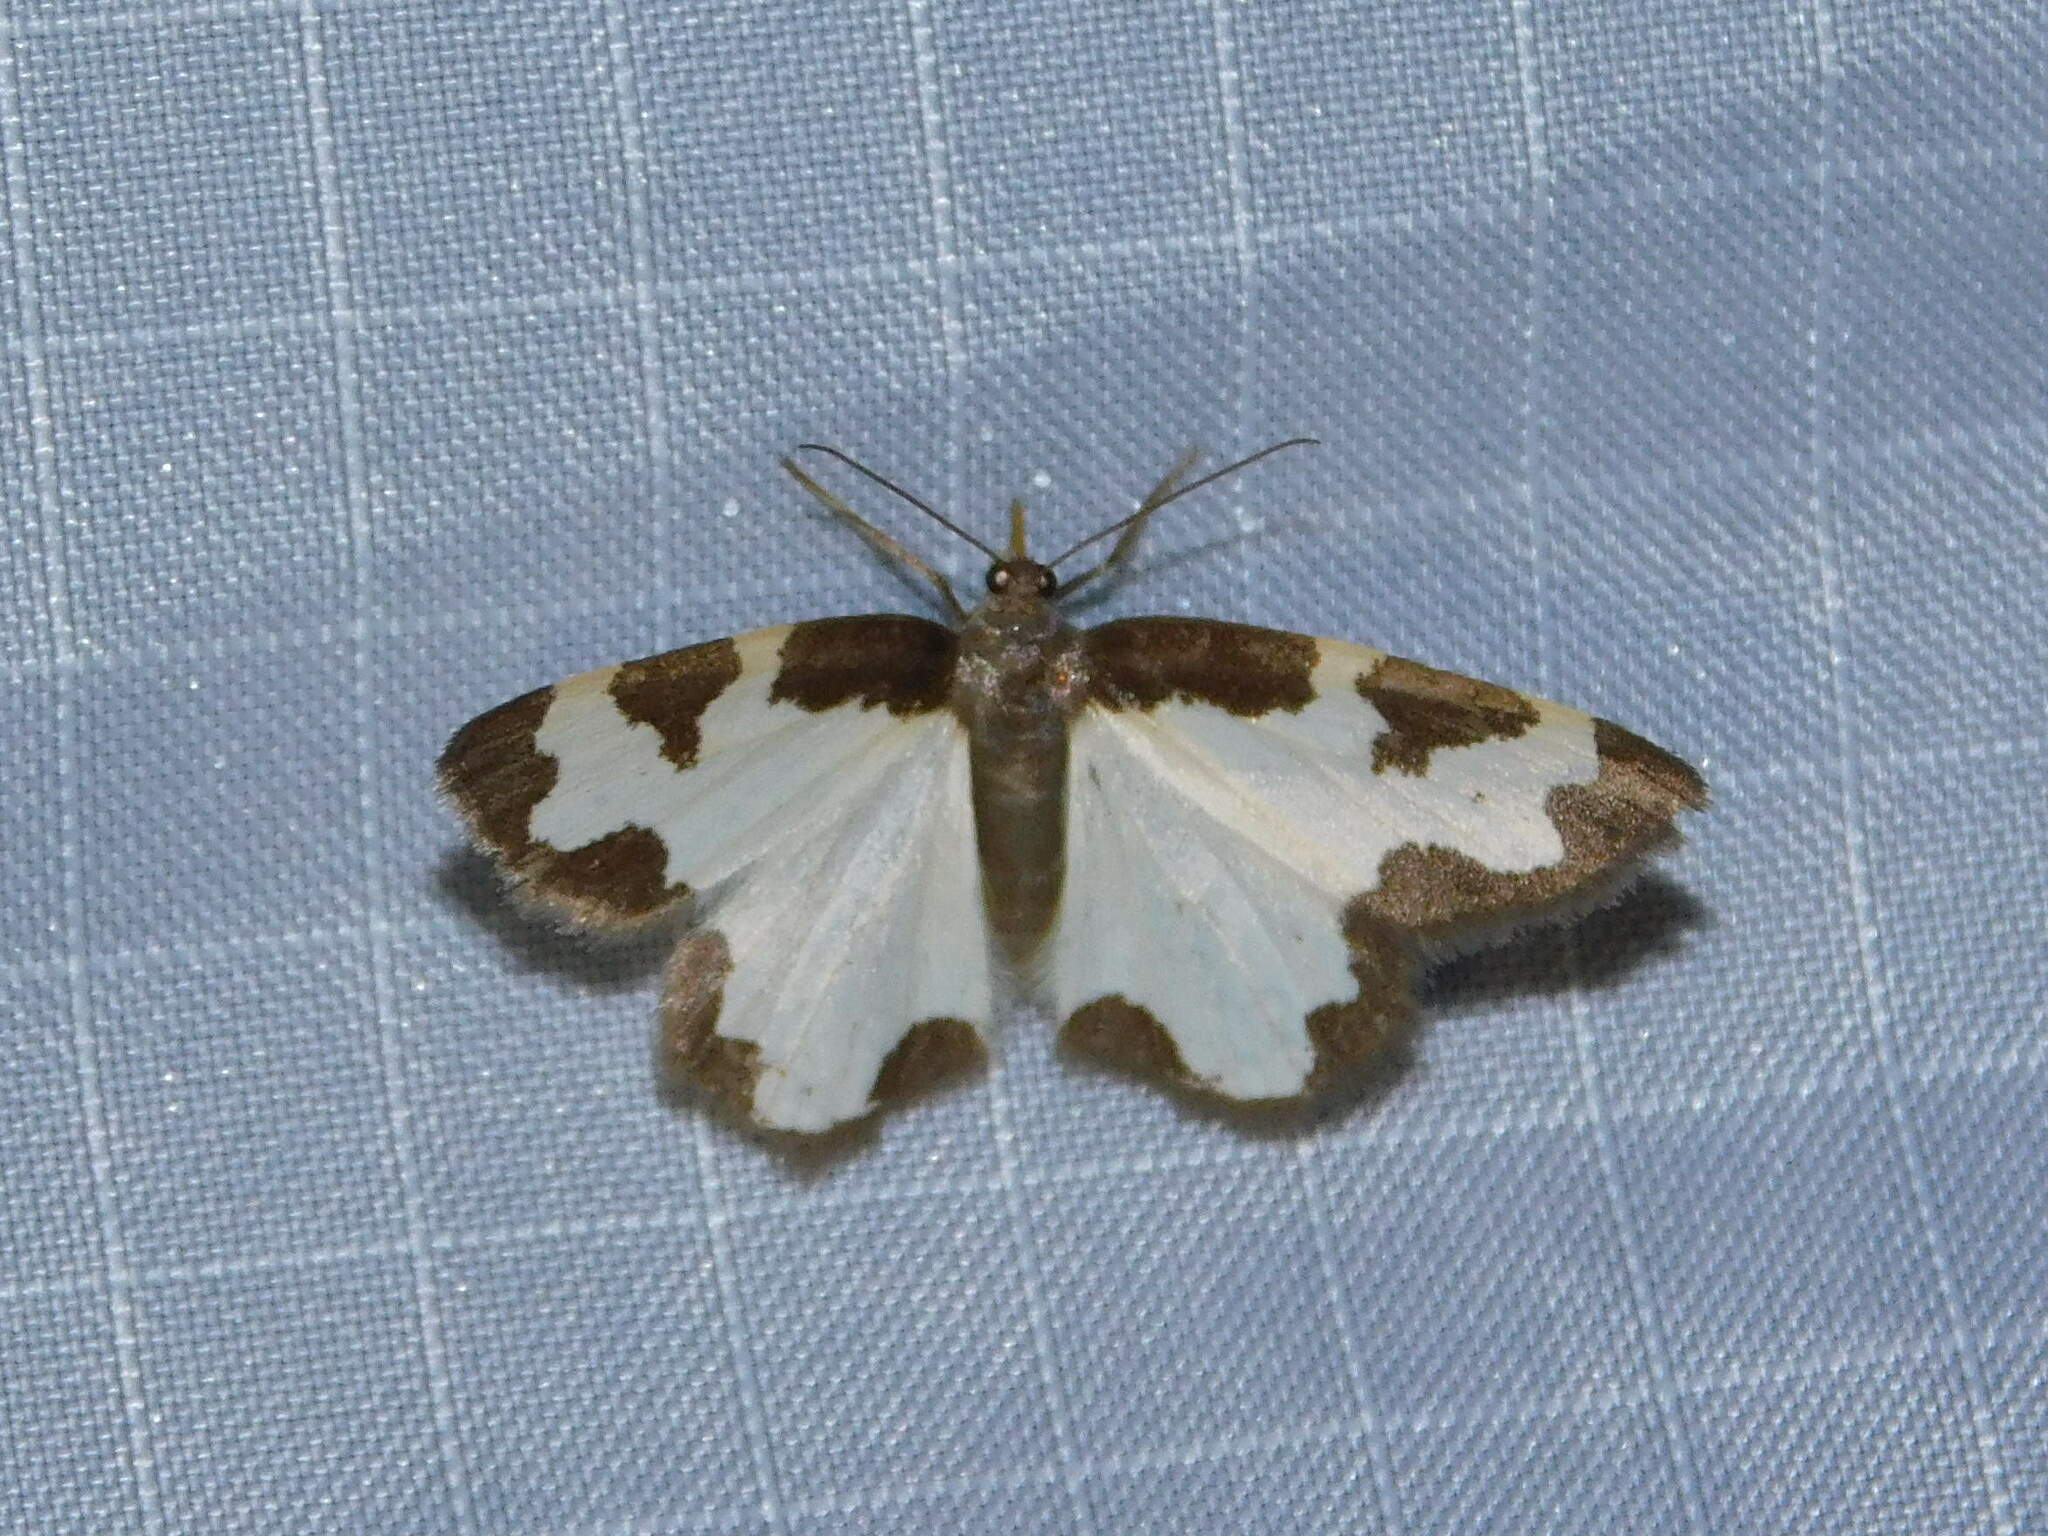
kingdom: Animalia
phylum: Arthropoda
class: Insecta
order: Lepidoptera
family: Geometridae
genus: Lomaspilis
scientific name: Lomaspilis marginata
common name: Clouded border
